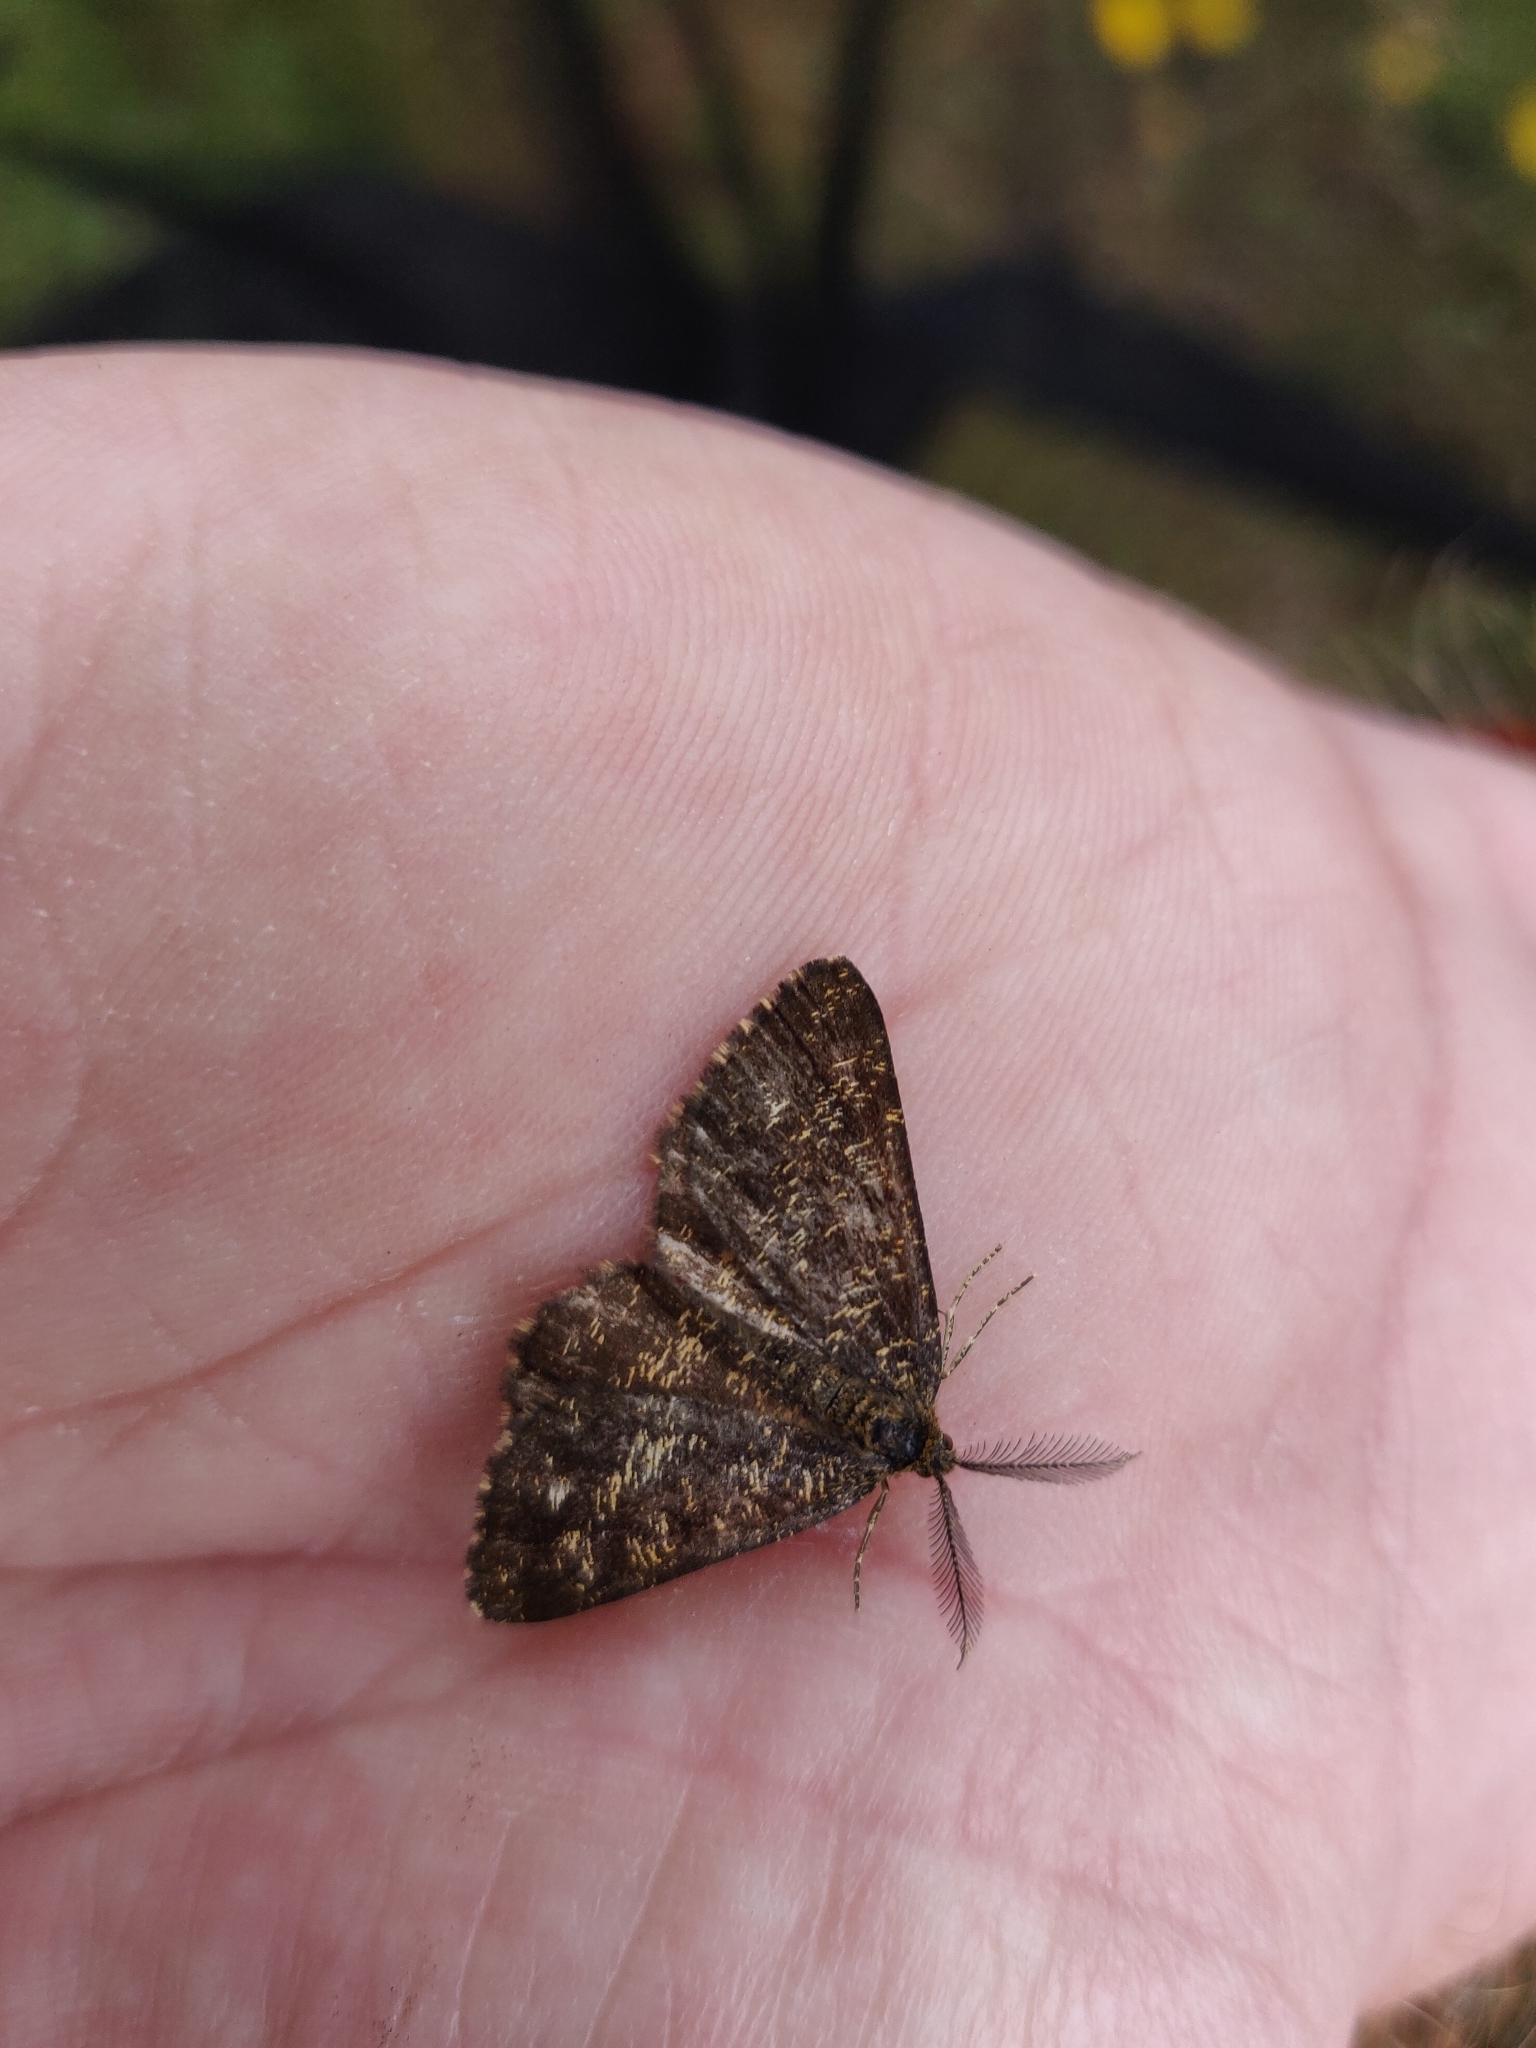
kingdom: Animalia
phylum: Arthropoda
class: Insecta
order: Lepidoptera
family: Geometridae
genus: Ematurga
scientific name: Ematurga atomaria
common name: Common heath
